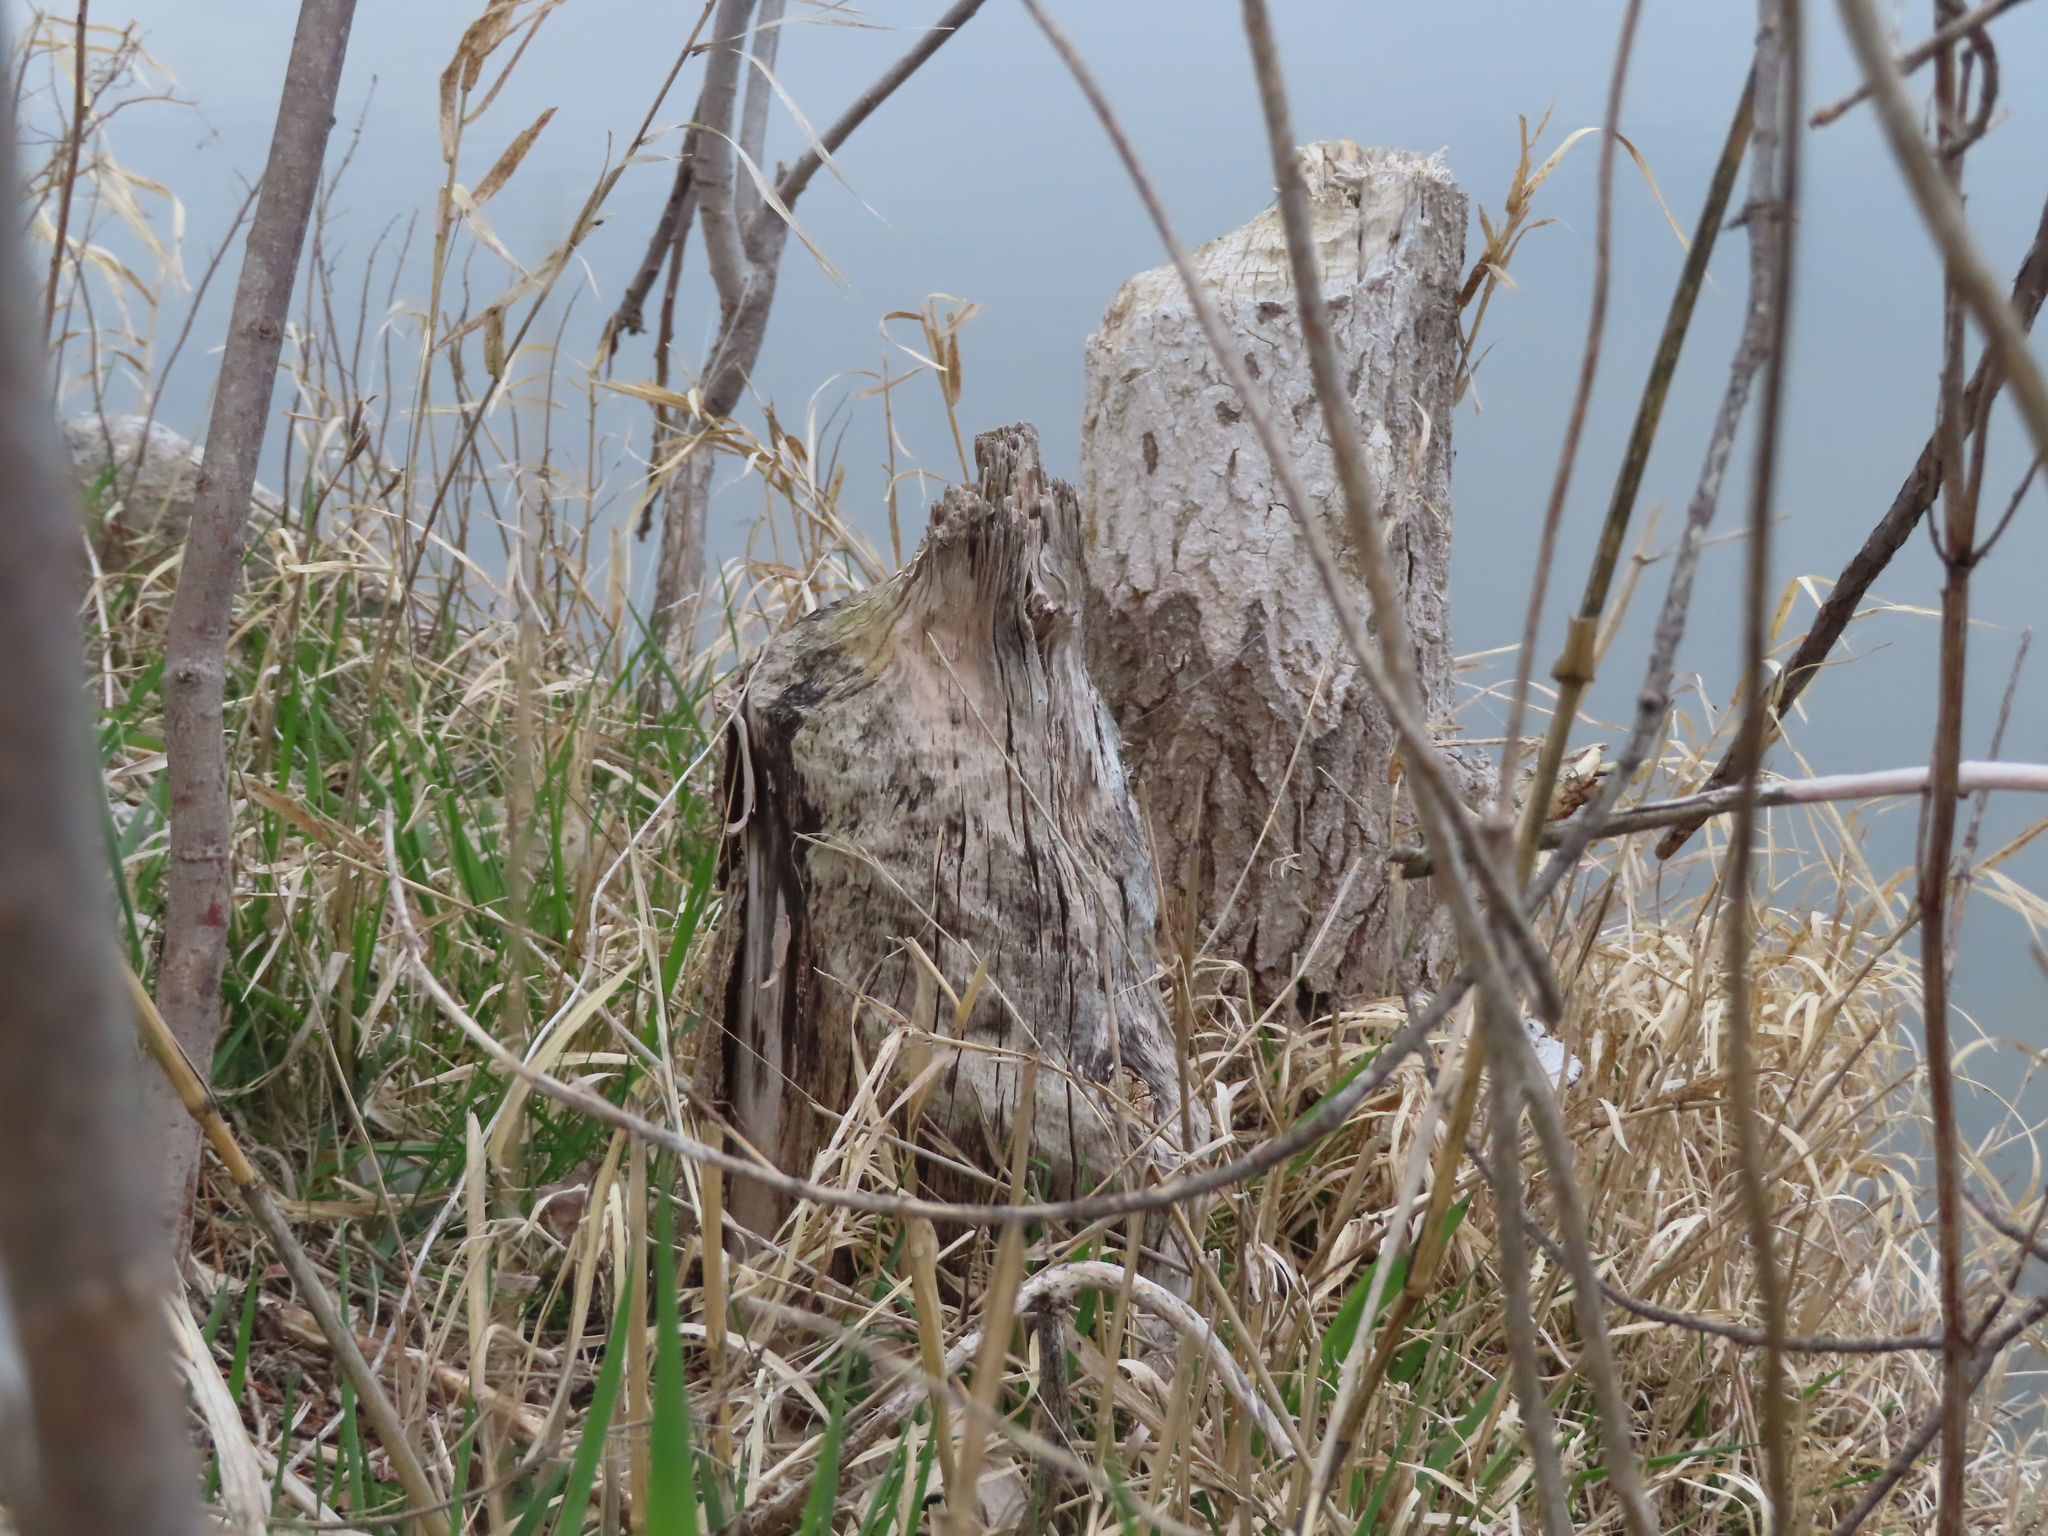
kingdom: Animalia
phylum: Chordata
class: Mammalia
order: Rodentia
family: Castoridae
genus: Castor
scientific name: Castor canadensis
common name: American beaver
